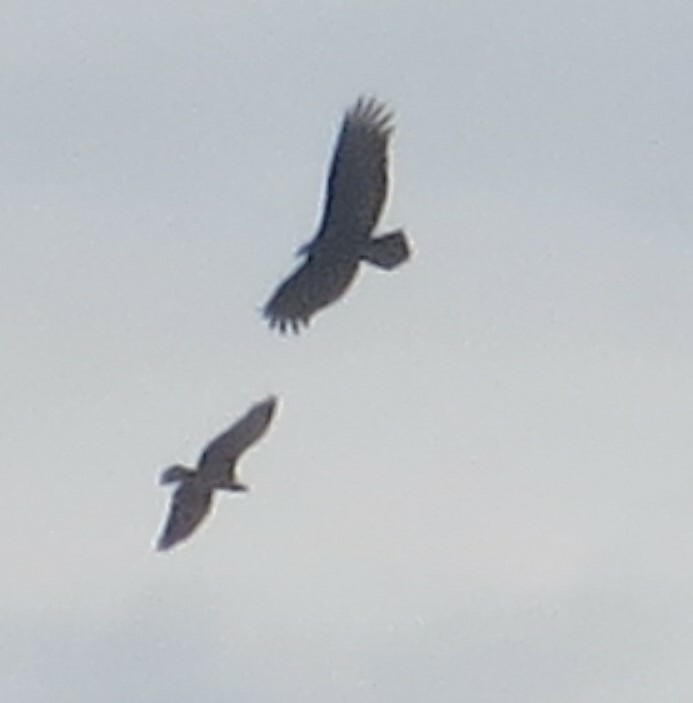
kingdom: Animalia
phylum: Chordata
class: Aves
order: Accipitriformes
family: Cathartidae
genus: Cathartes
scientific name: Cathartes aura
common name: Turkey vulture
